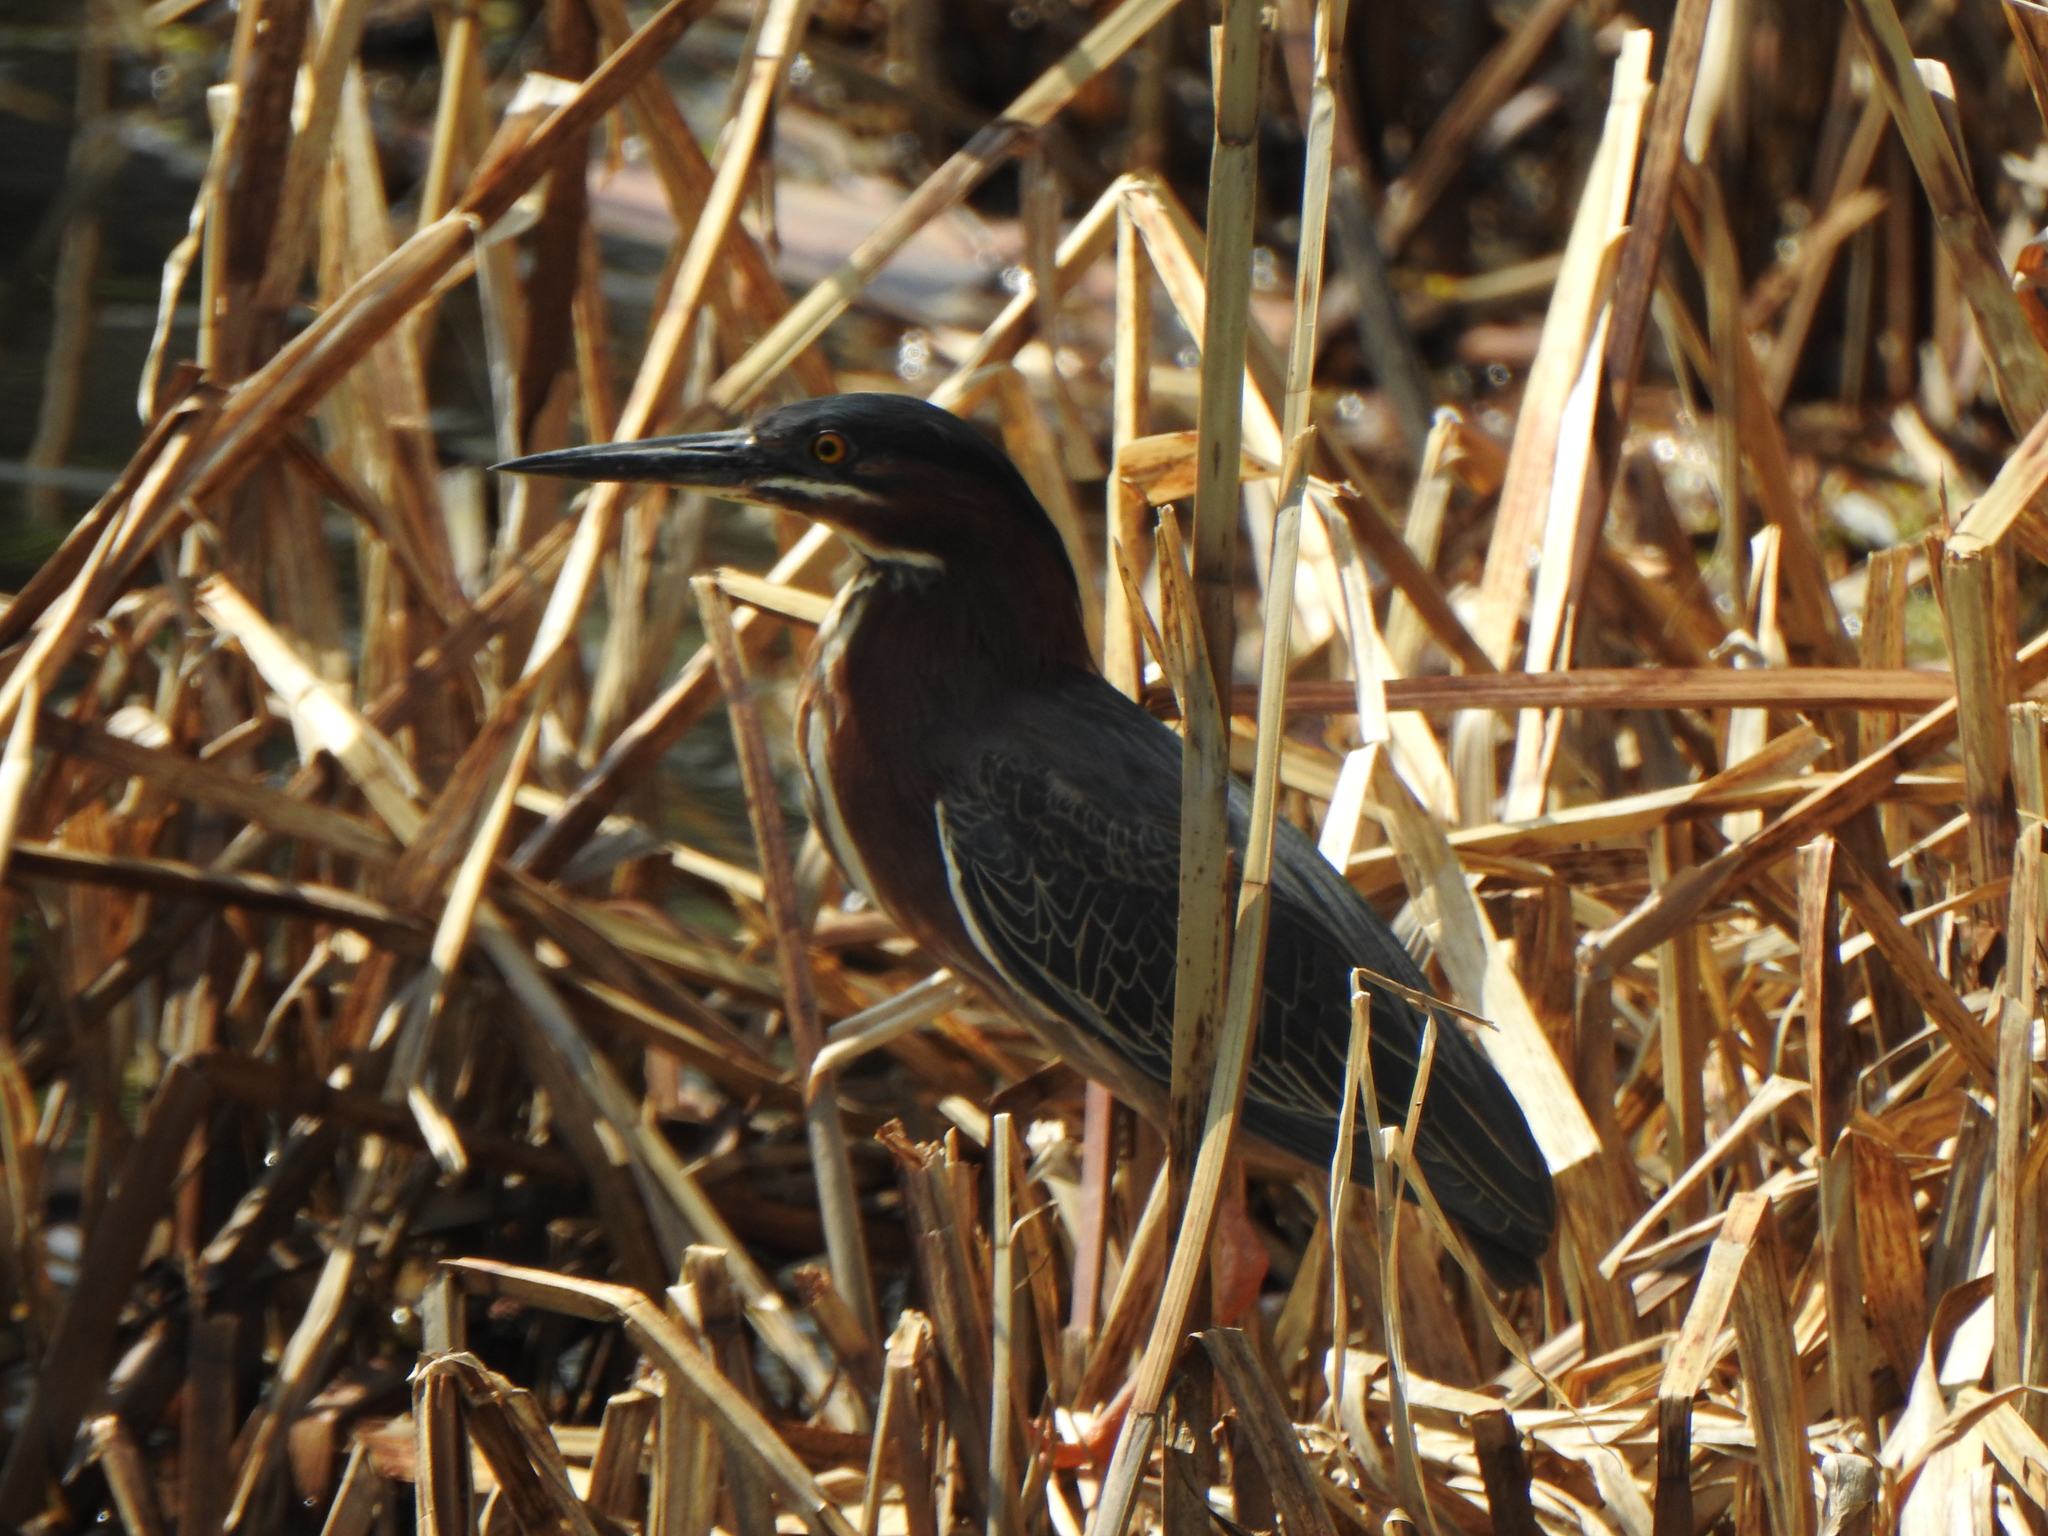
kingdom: Animalia
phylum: Chordata
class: Aves
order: Pelecaniformes
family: Ardeidae
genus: Butorides
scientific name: Butorides virescens
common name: Green heron
